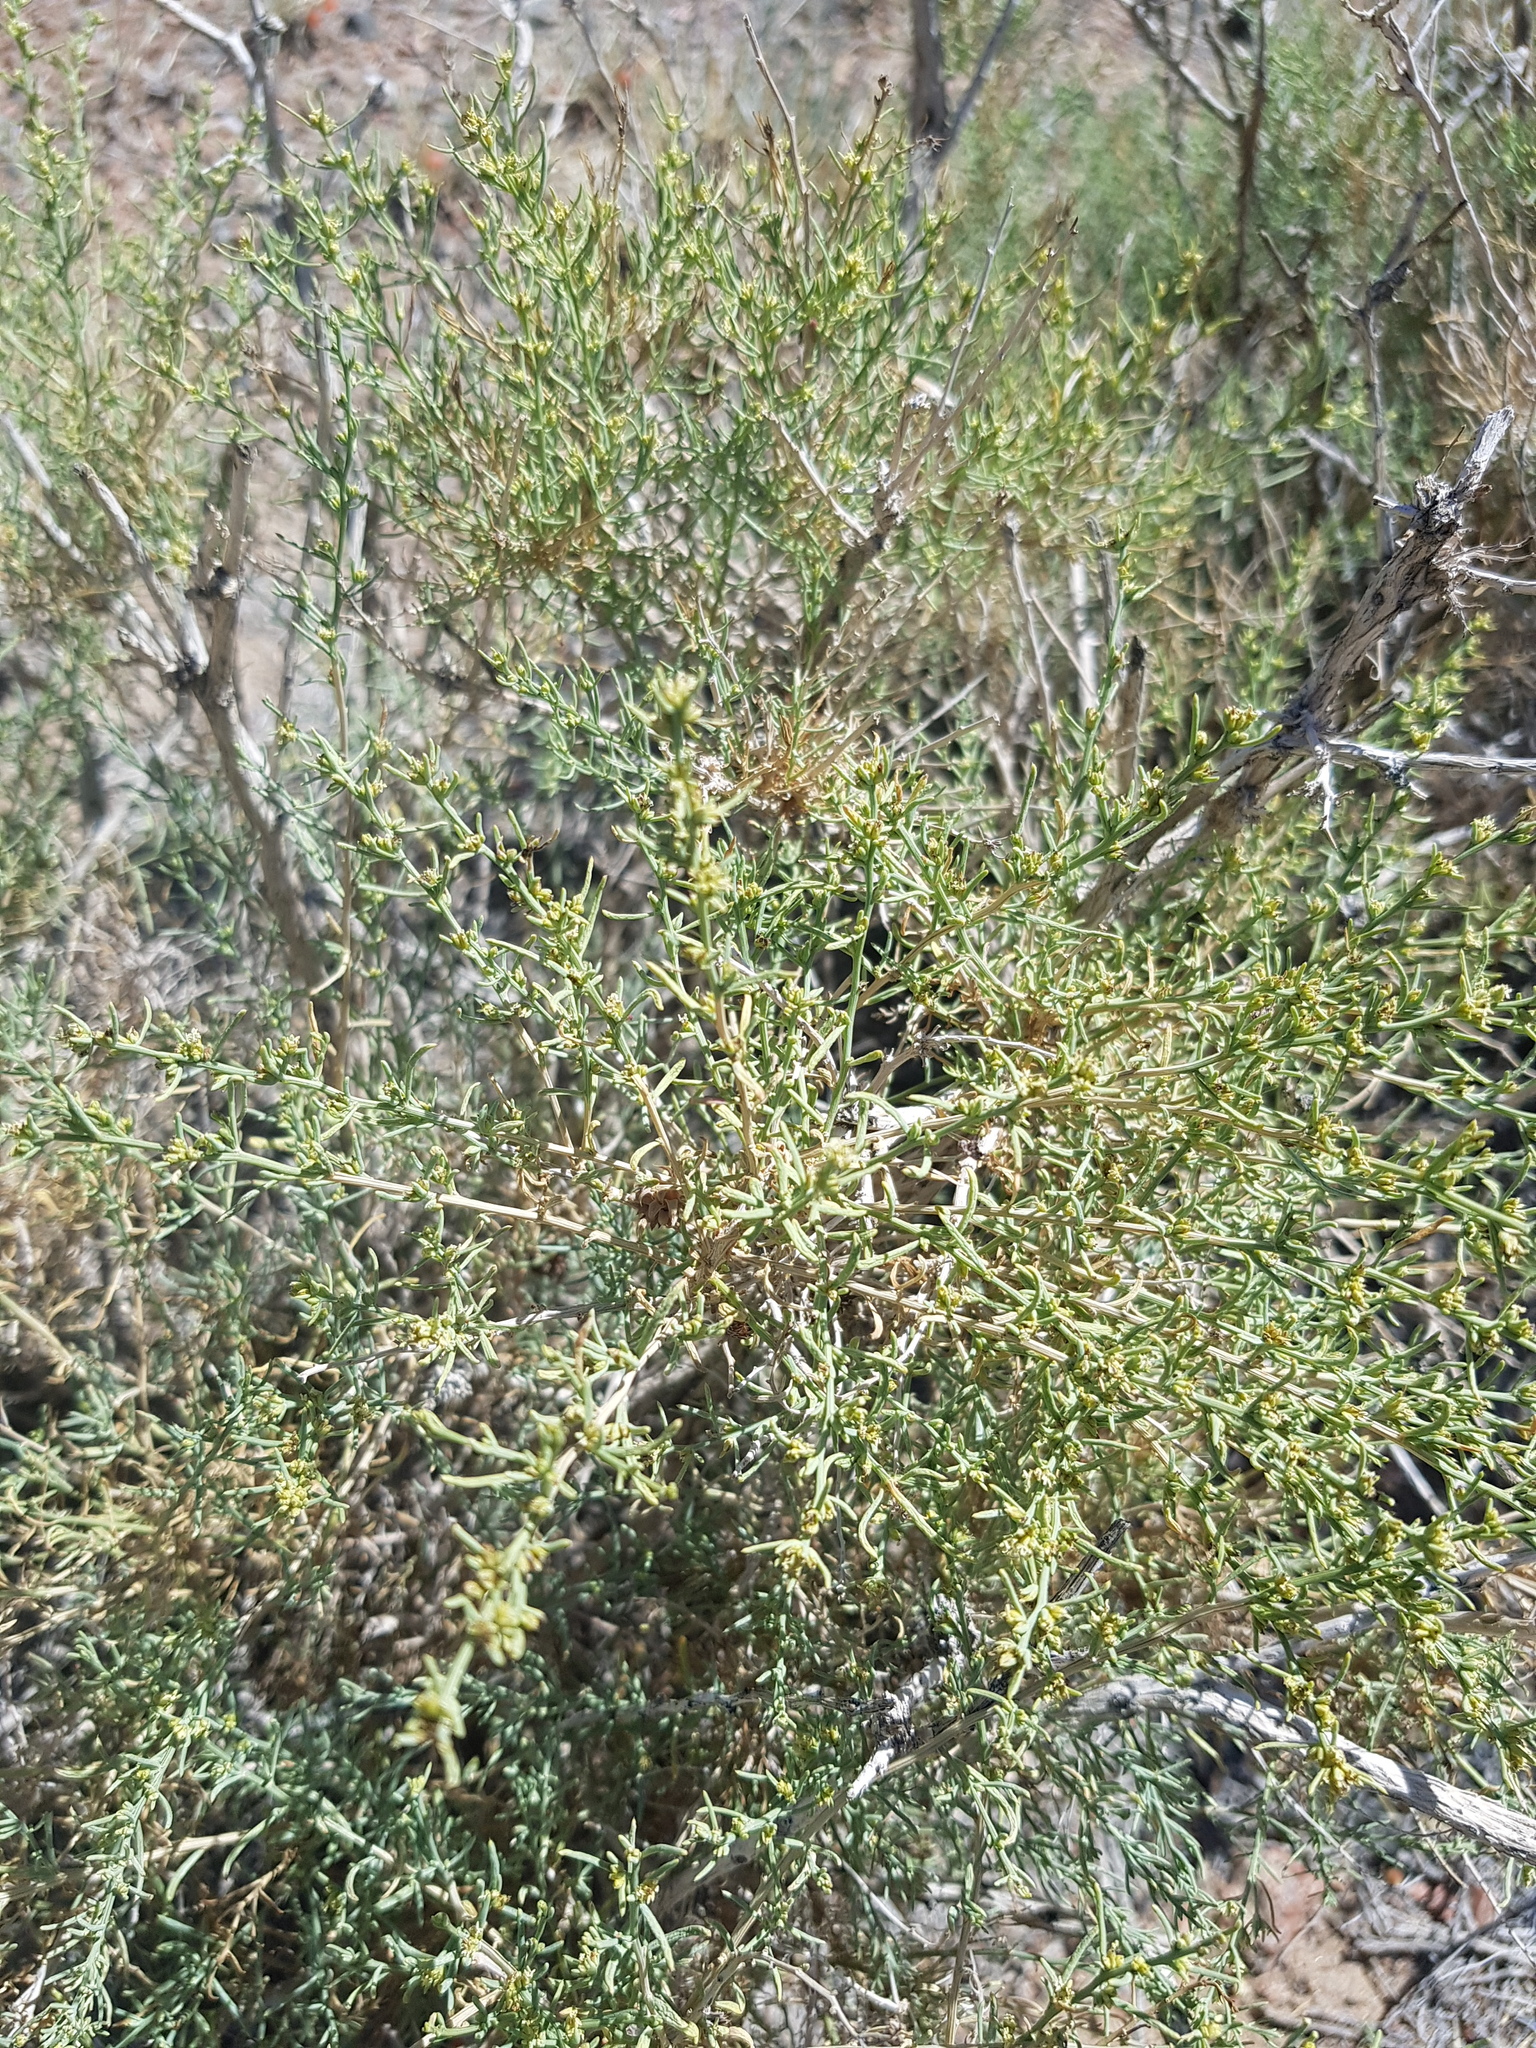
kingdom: Plantae
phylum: Tracheophyta
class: Magnoliopsida
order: Caryophyllales
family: Amaranthaceae
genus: Sympegma
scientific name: Sympegma regelii
